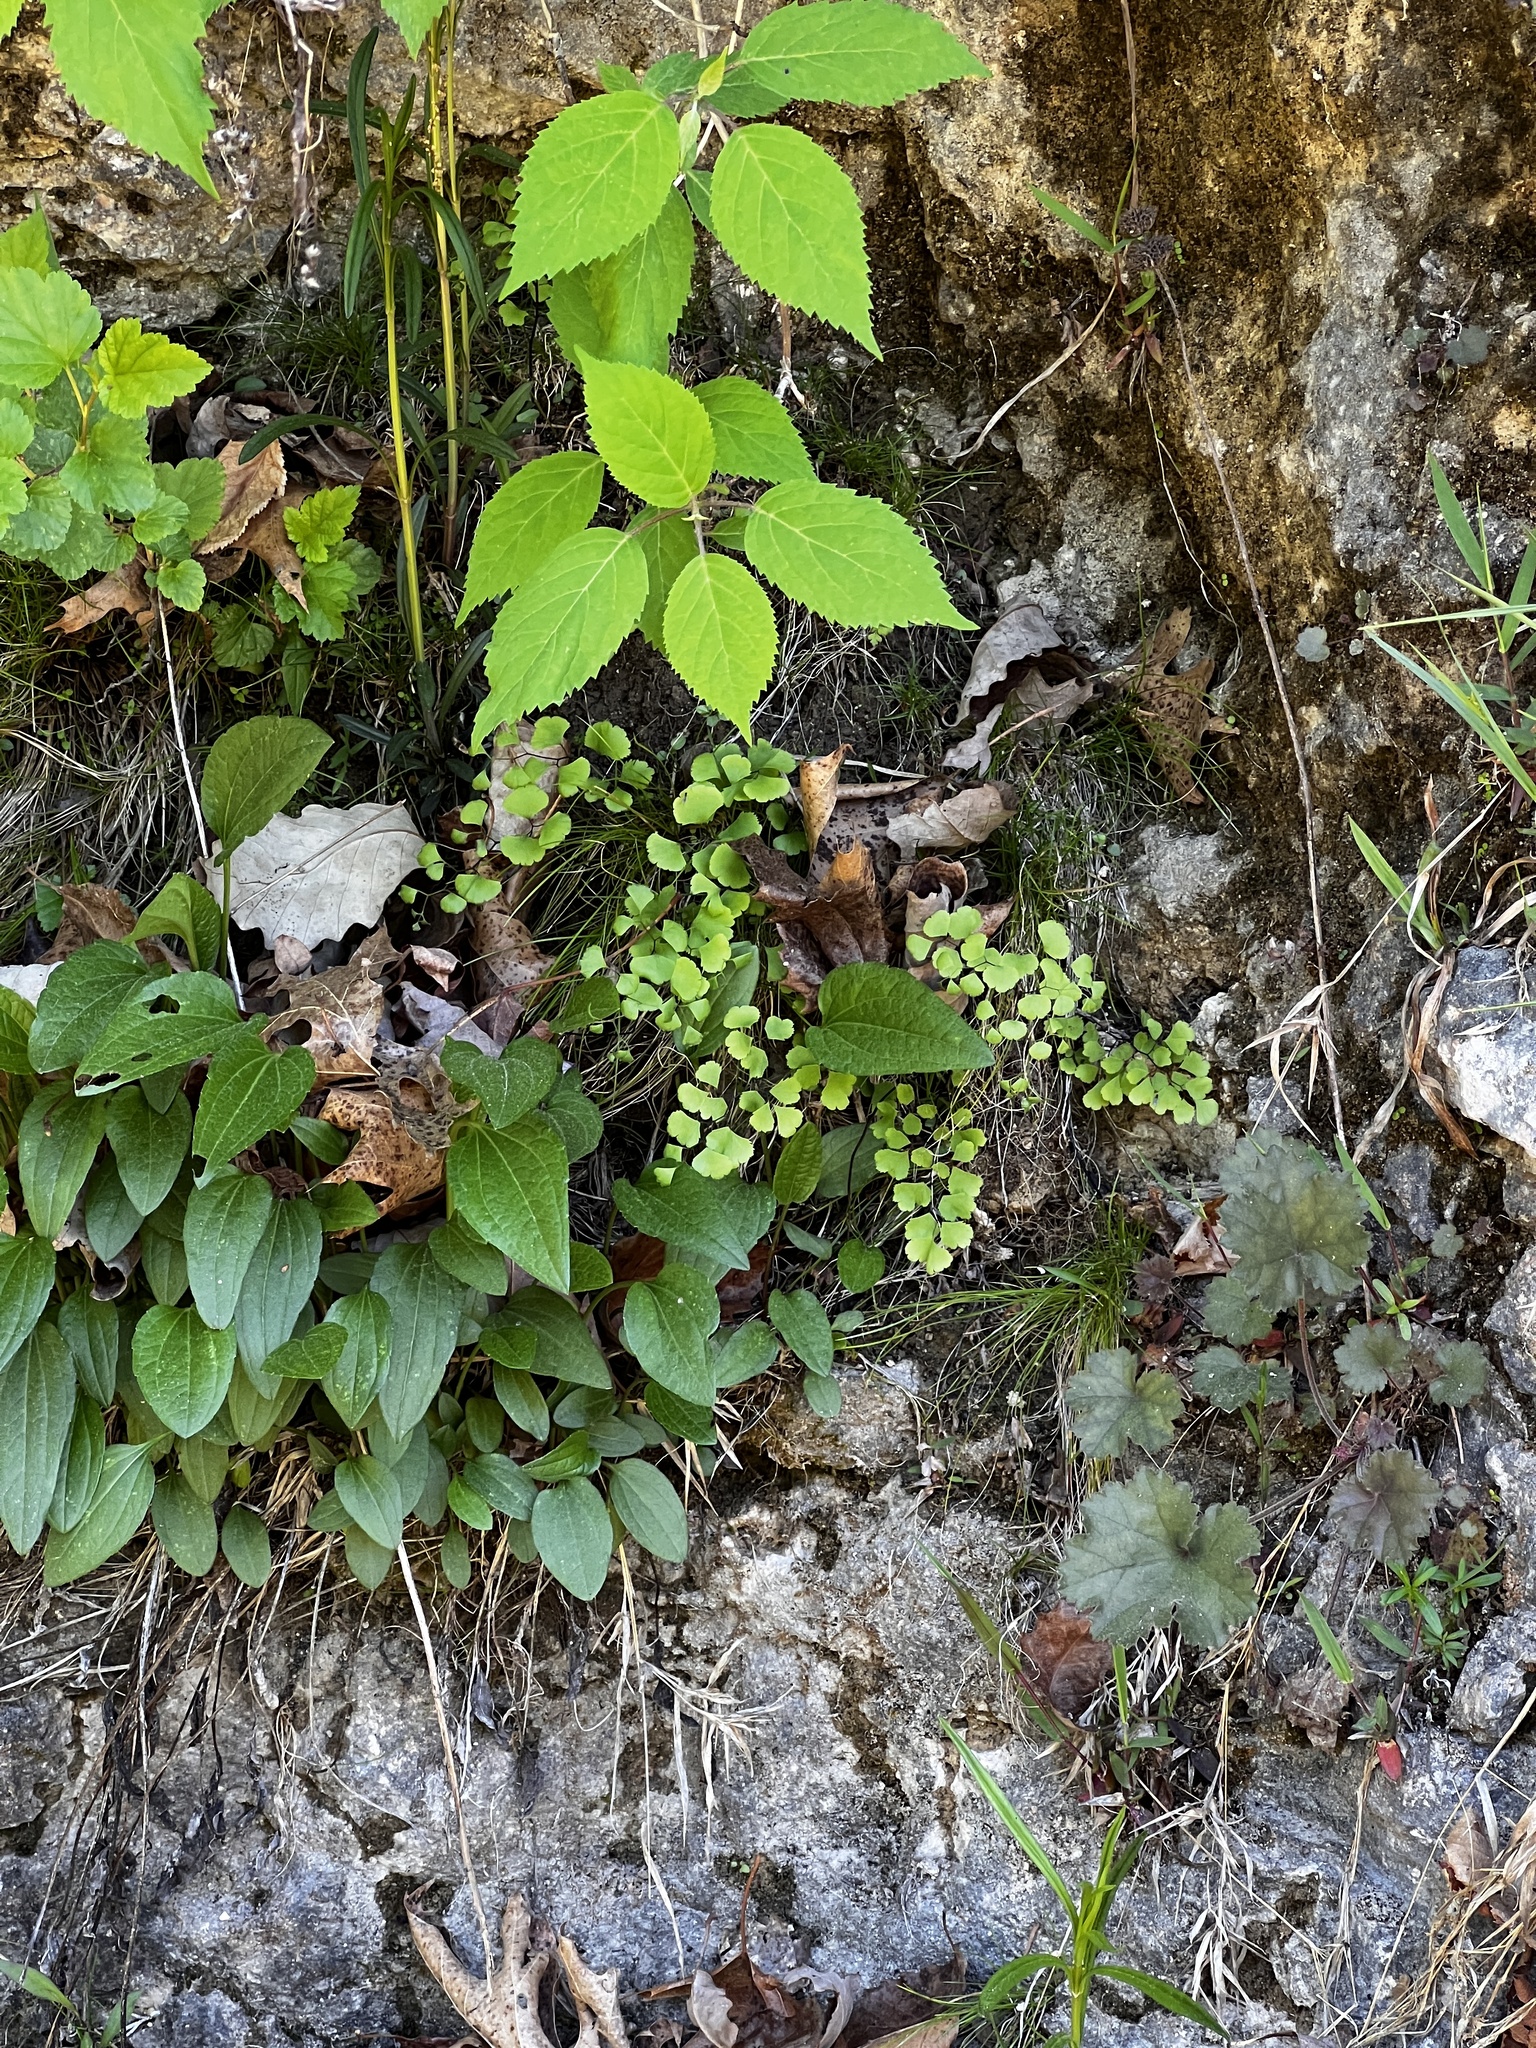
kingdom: Plantae
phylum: Tracheophyta
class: Polypodiopsida
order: Polypodiales
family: Pteridaceae
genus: Adiantum
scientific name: Adiantum capillus-veneris
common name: Maidenhair fern
